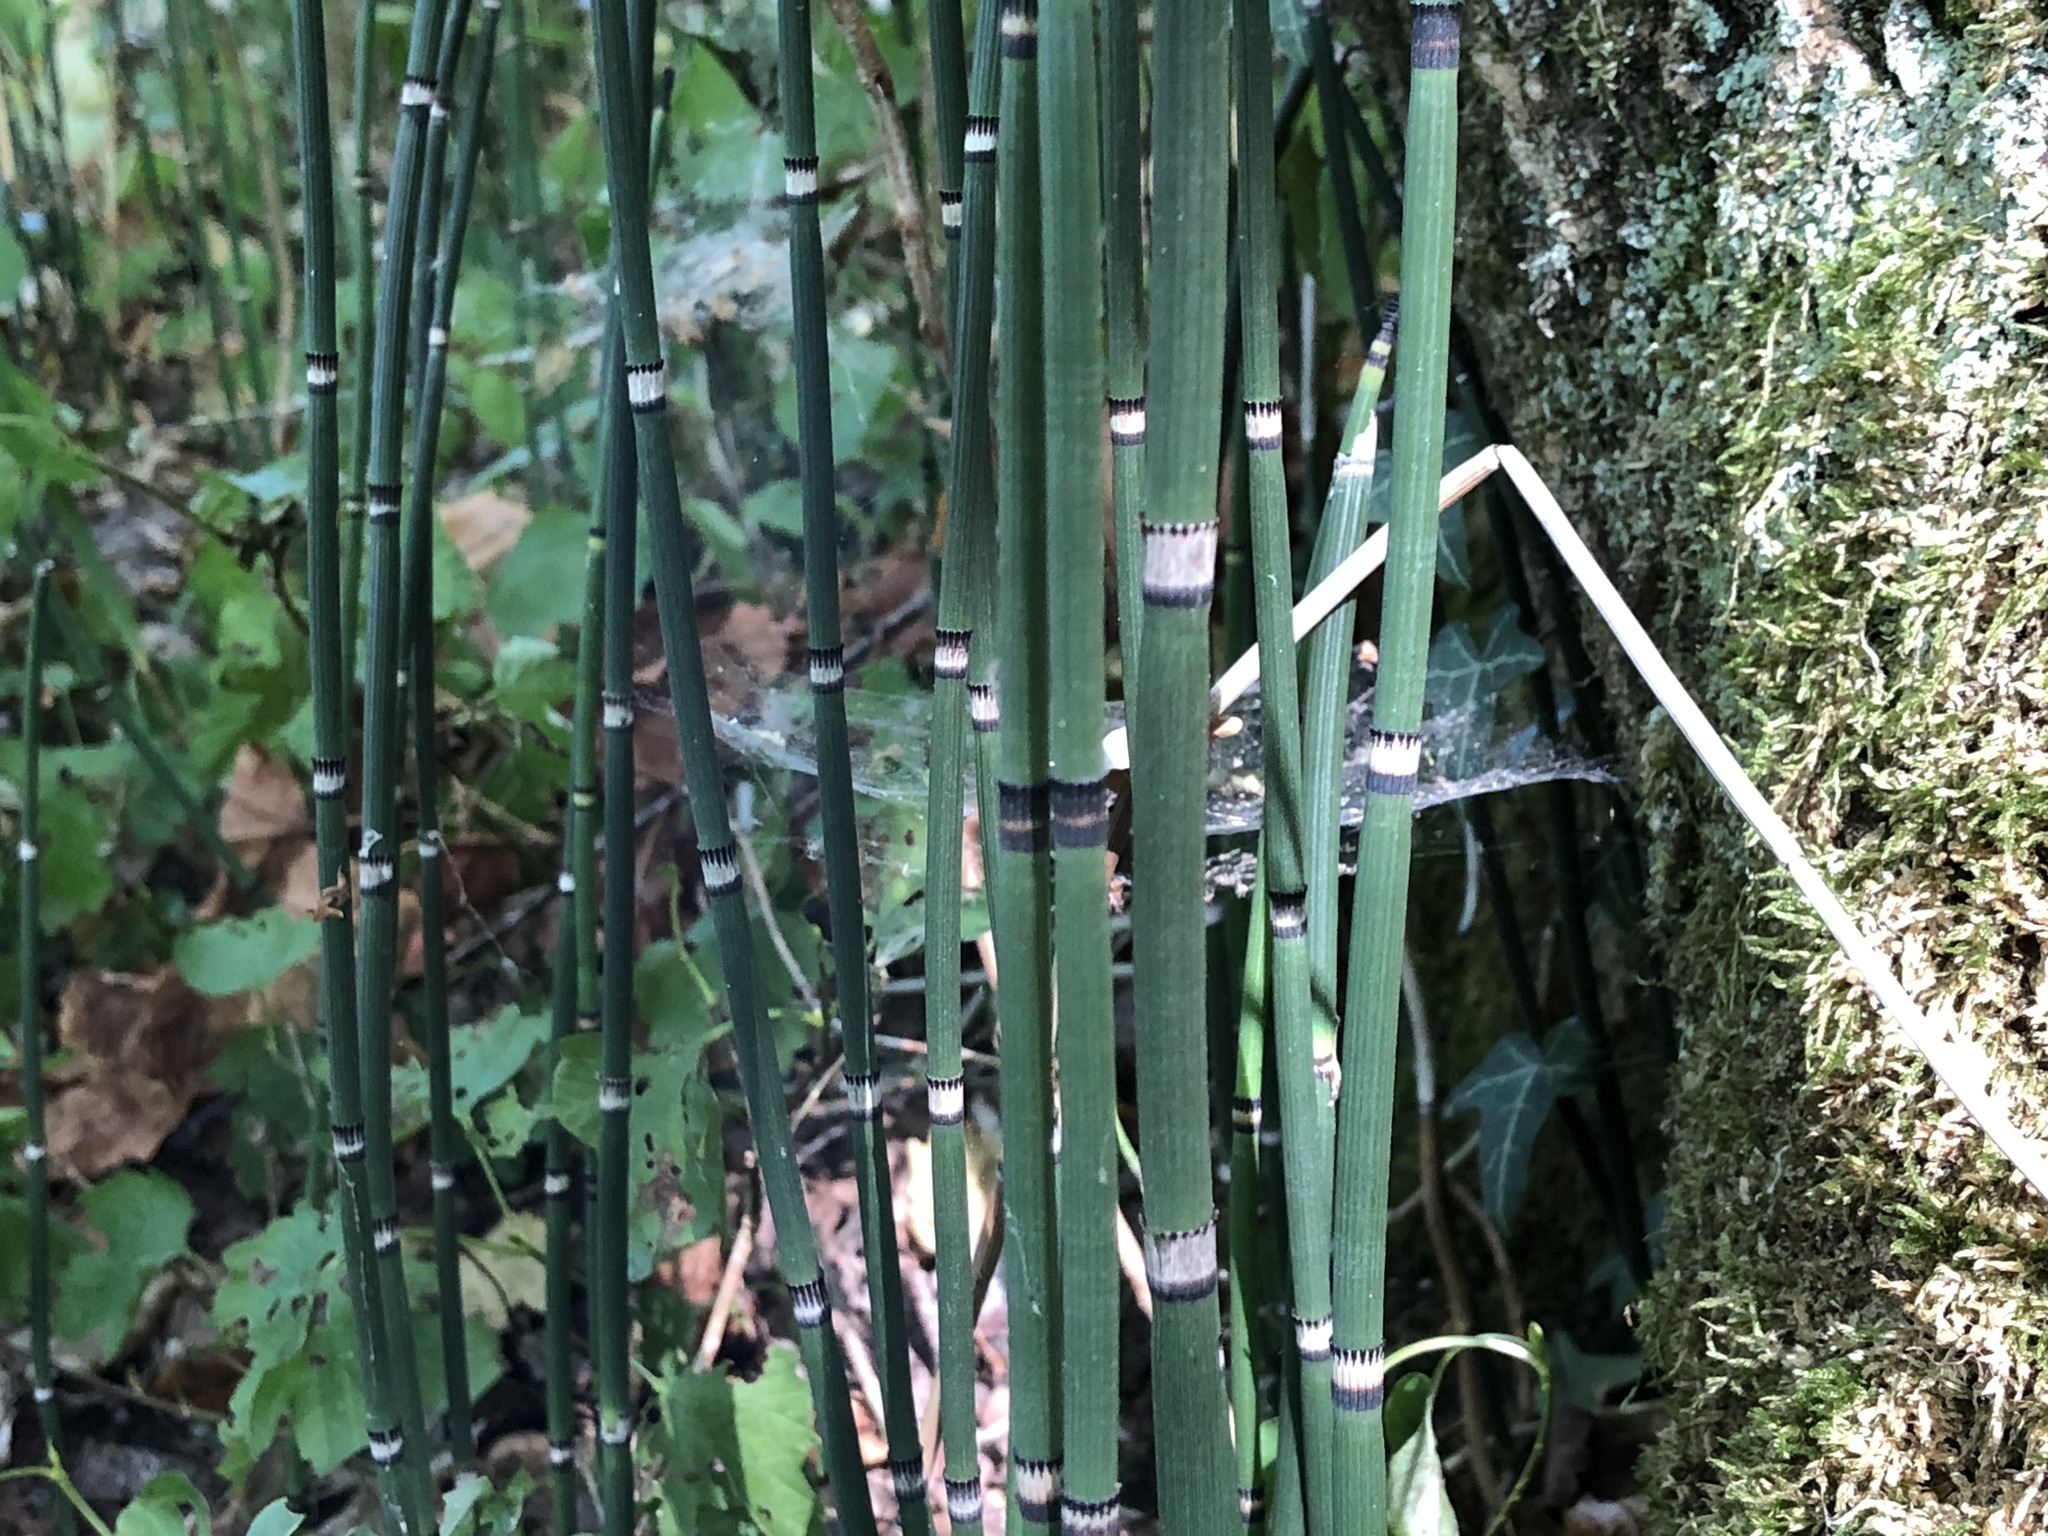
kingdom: Plantae
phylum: Tracheophyta
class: Polypodiopsida
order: Equisetales
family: Equisetaceae
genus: Equisetum
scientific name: Equisetum hyemale
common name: Rough horsetail
